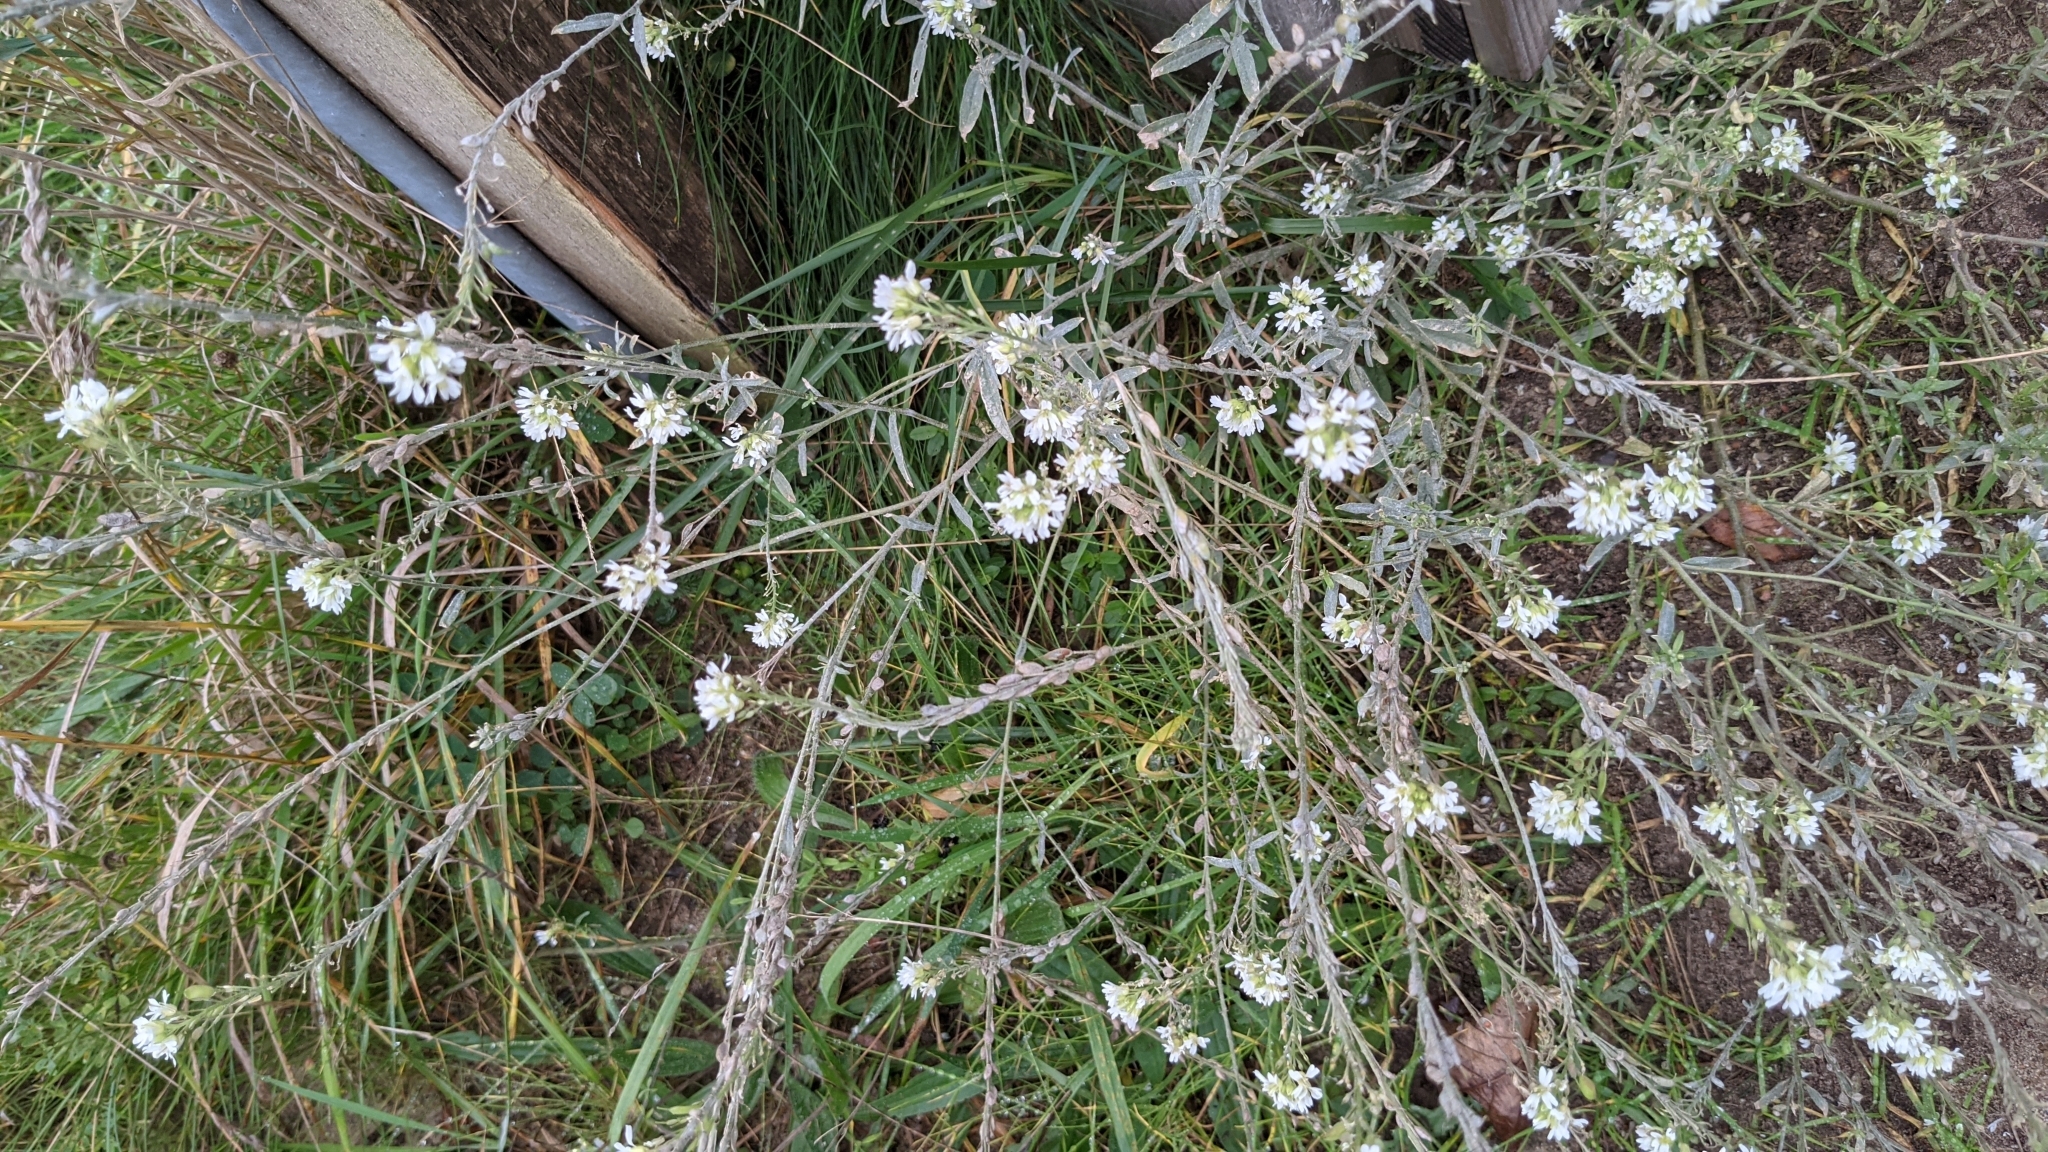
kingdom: Plantae
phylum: Tracheophyta
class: Magnoliopsida
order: Brassicales
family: Brassicaceae
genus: Berteroa
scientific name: Berteroa incana
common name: Hoary alison
